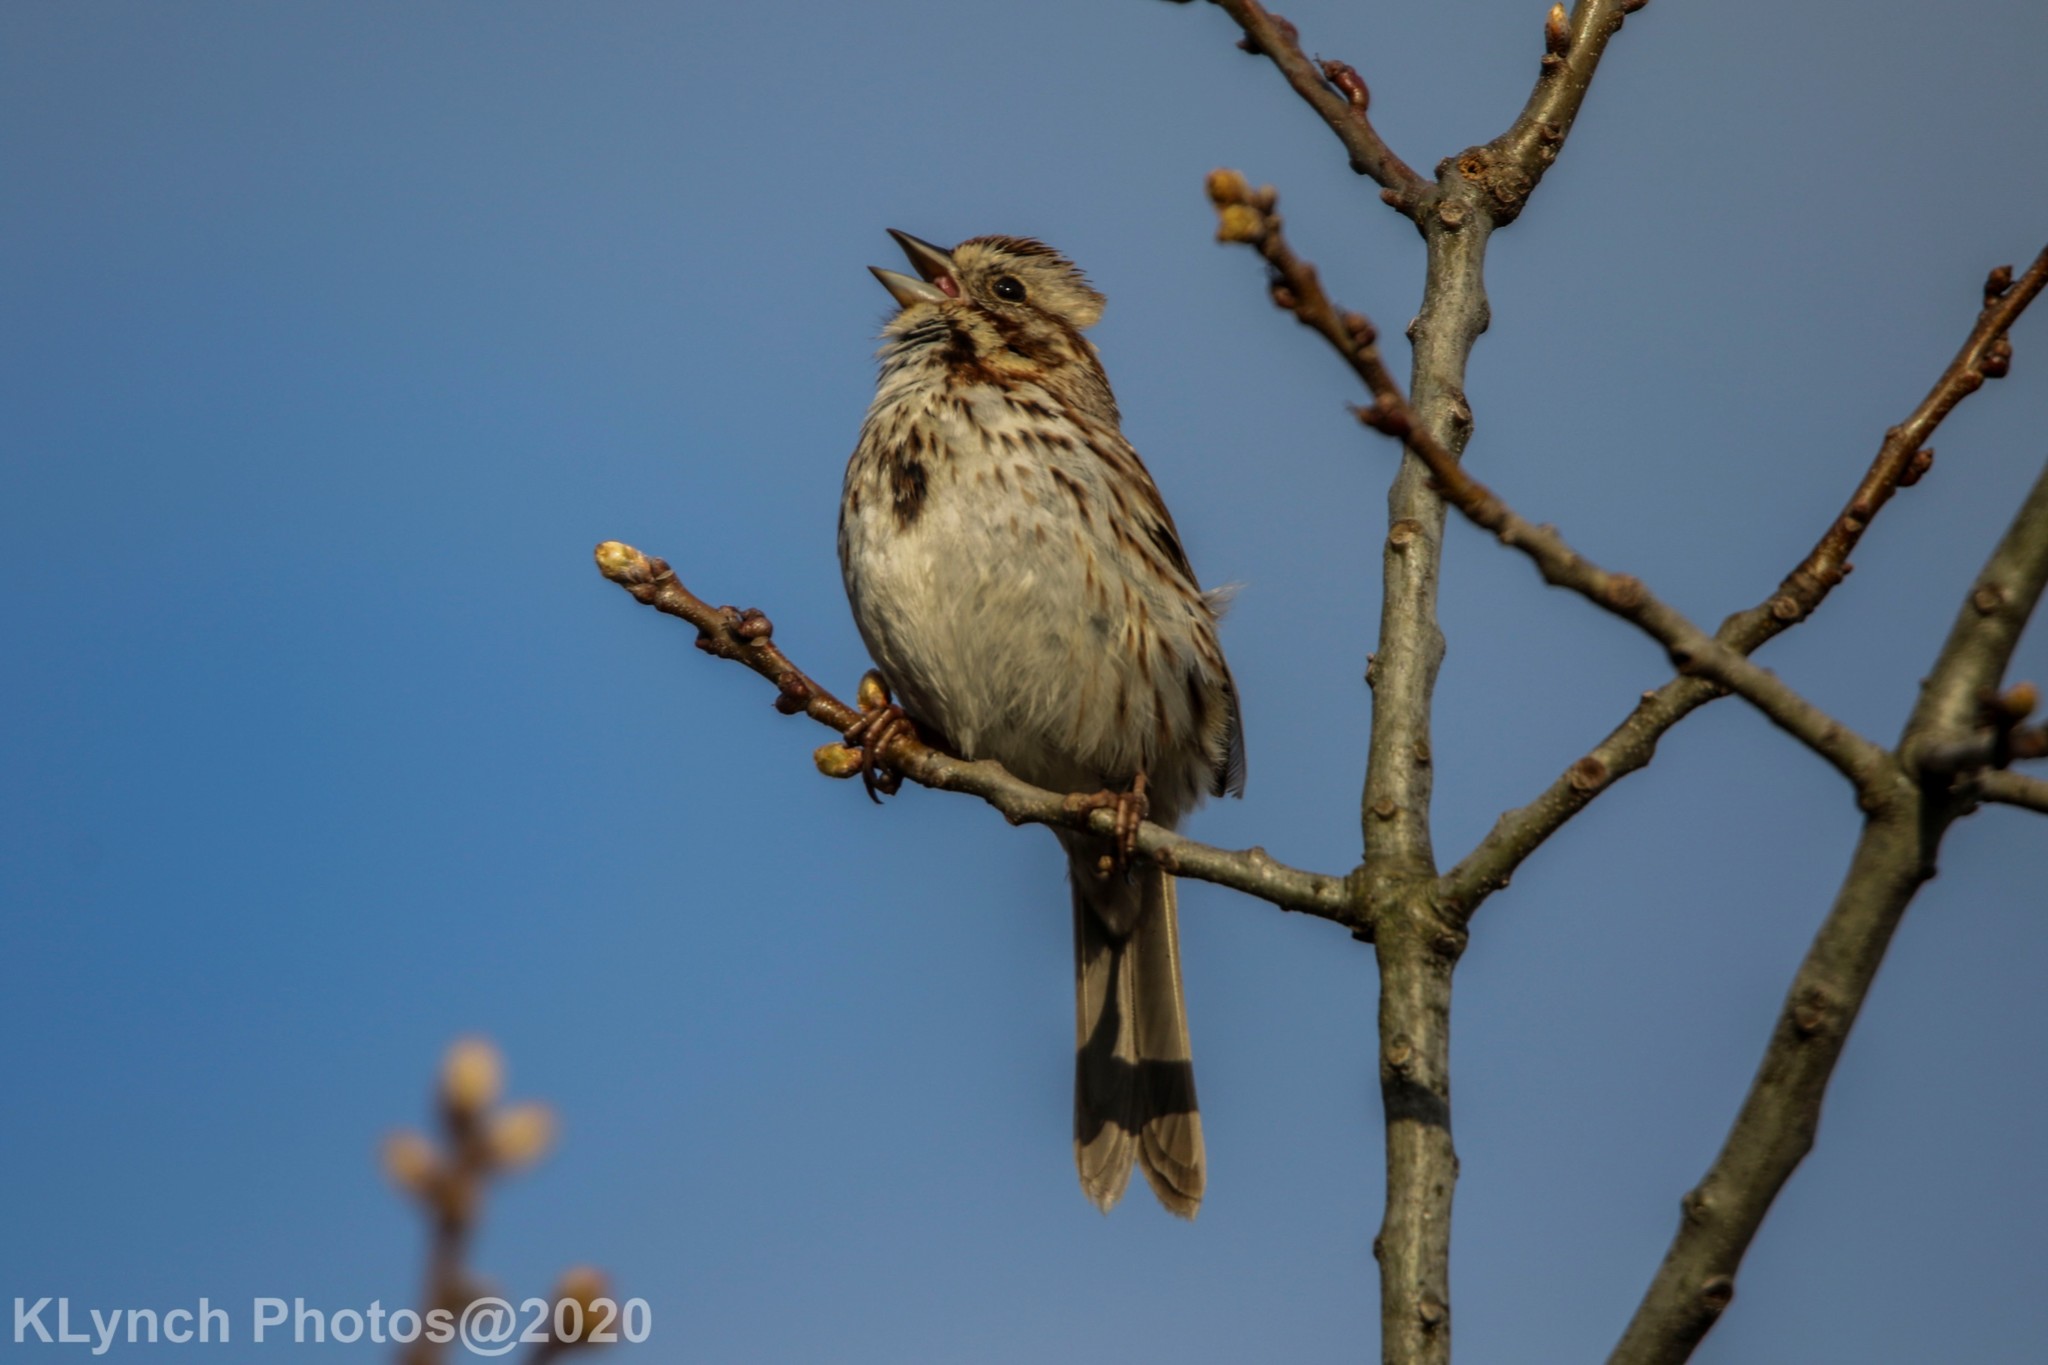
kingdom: Animalia
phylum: Chordata
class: Aves
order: Passeriformes
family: Passerellidae
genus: Melospiza
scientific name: Melospiza melodia
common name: Song sparrow
